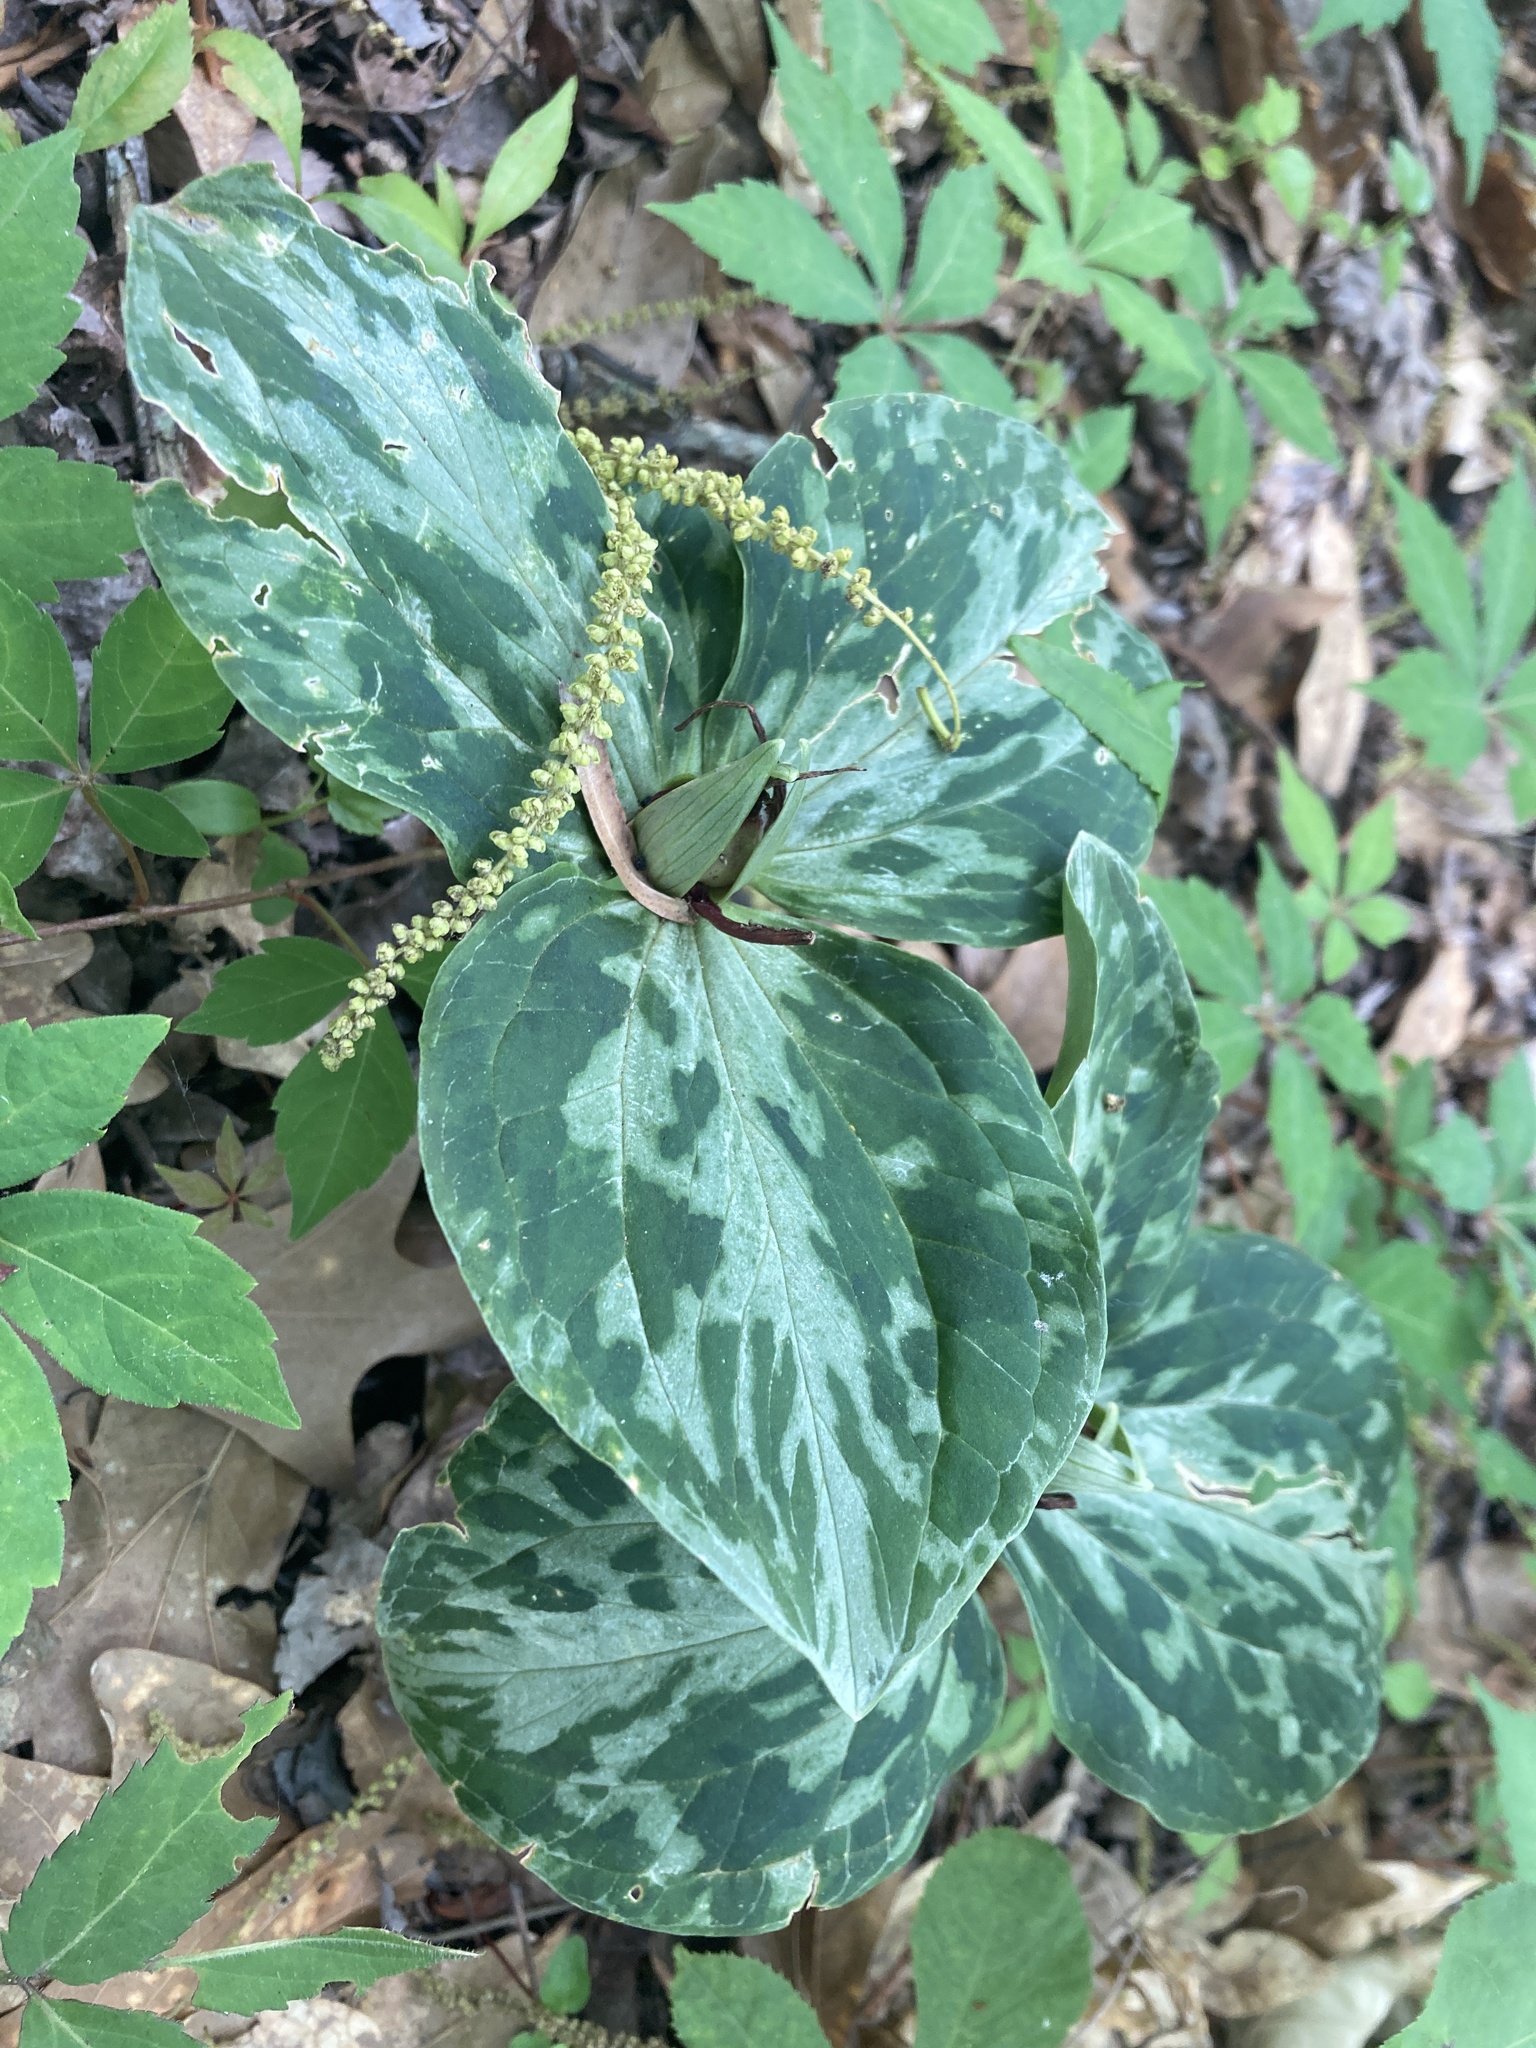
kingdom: Plantae
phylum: Tracheophyta
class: Liliopsida
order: Liliales
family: Melanthiaceae
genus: Trillium
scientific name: Trillium foetidissimum
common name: Mississippi river trillium
